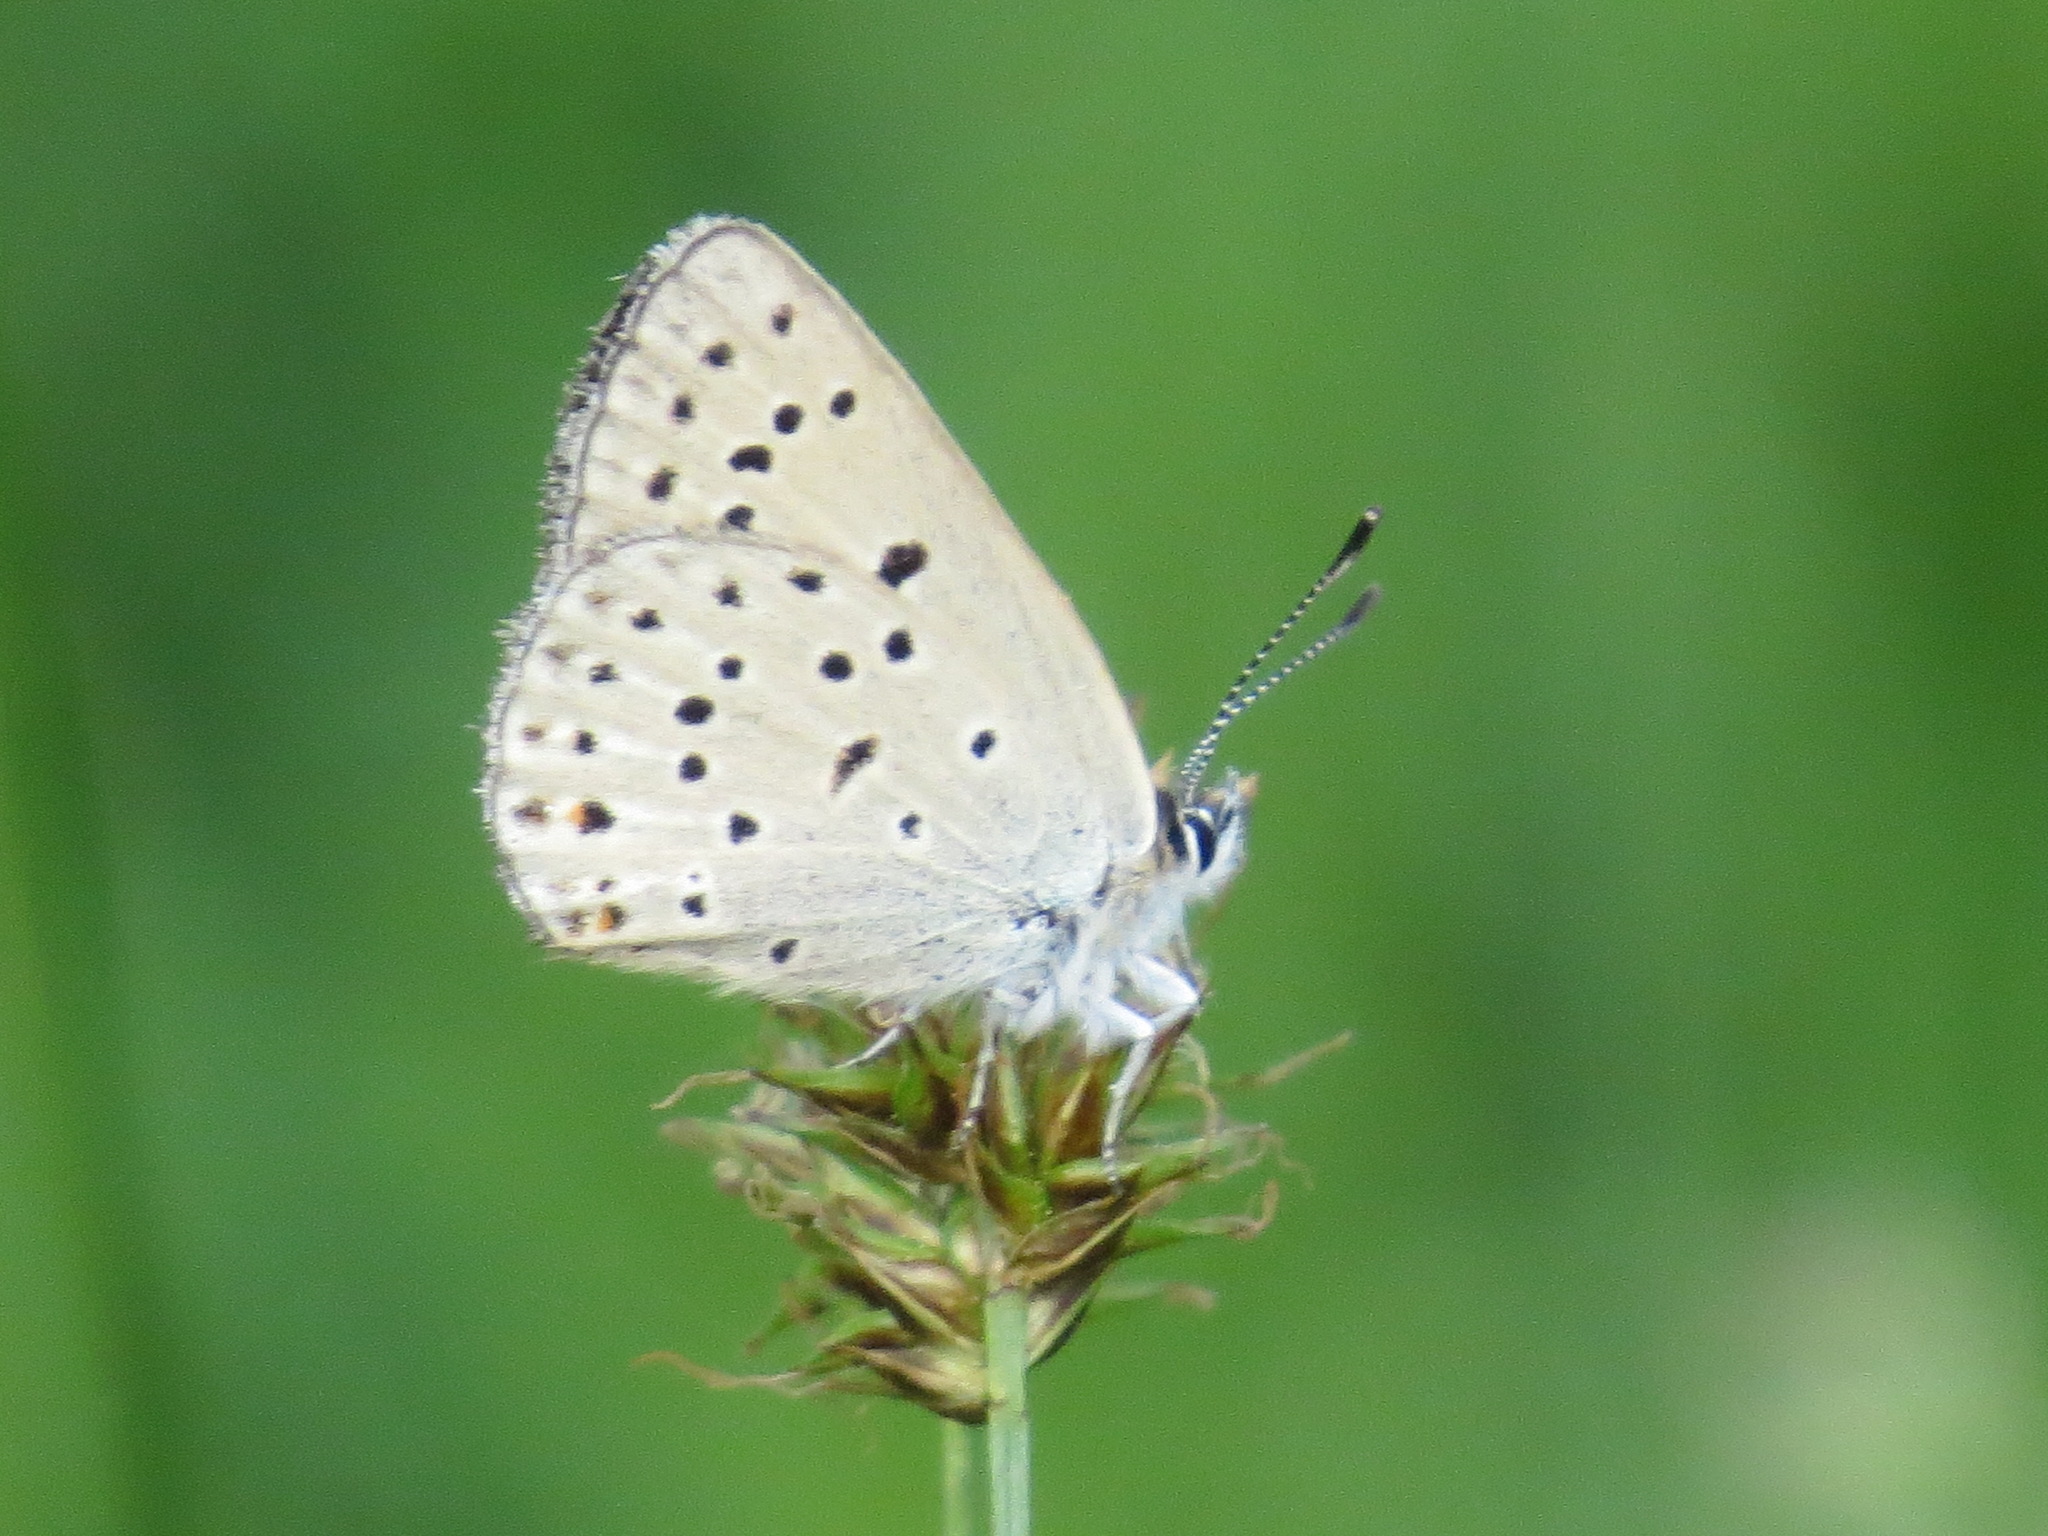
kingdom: Animalia
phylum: Arthropoda
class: Insecta
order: Lepidoptera
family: Lycaenidae
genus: Icaricia
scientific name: Icaricia saepiolus
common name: Greenish blue
